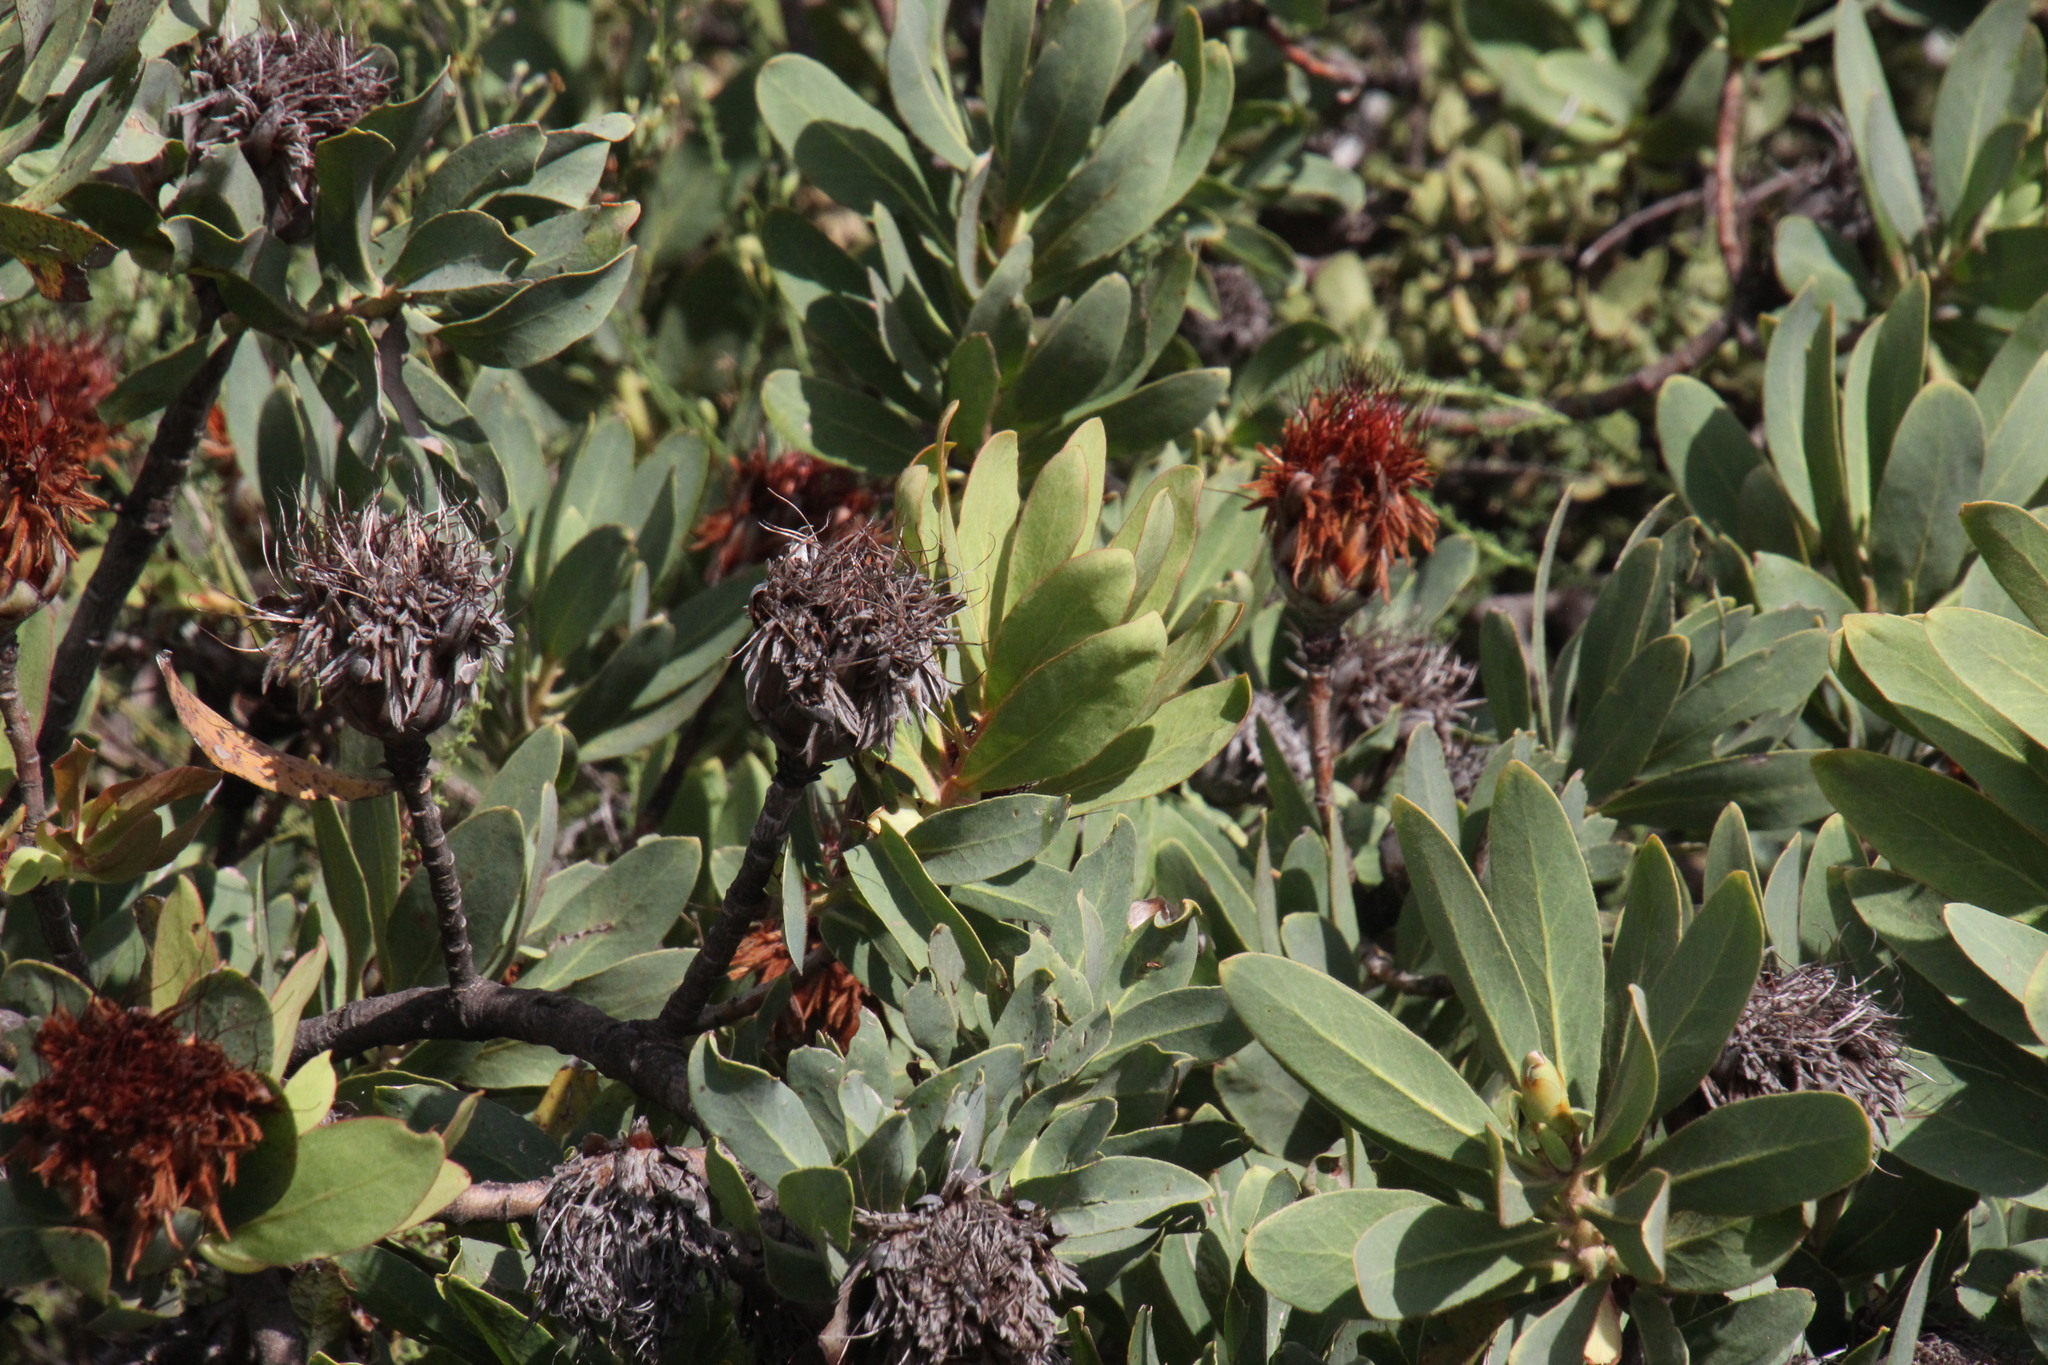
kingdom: Plantae
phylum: Tracheophyta
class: Magnoliopsida
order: Proteales
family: Proteaceae
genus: Protea
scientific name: Protea welwitschii
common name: Cluster-head protea
